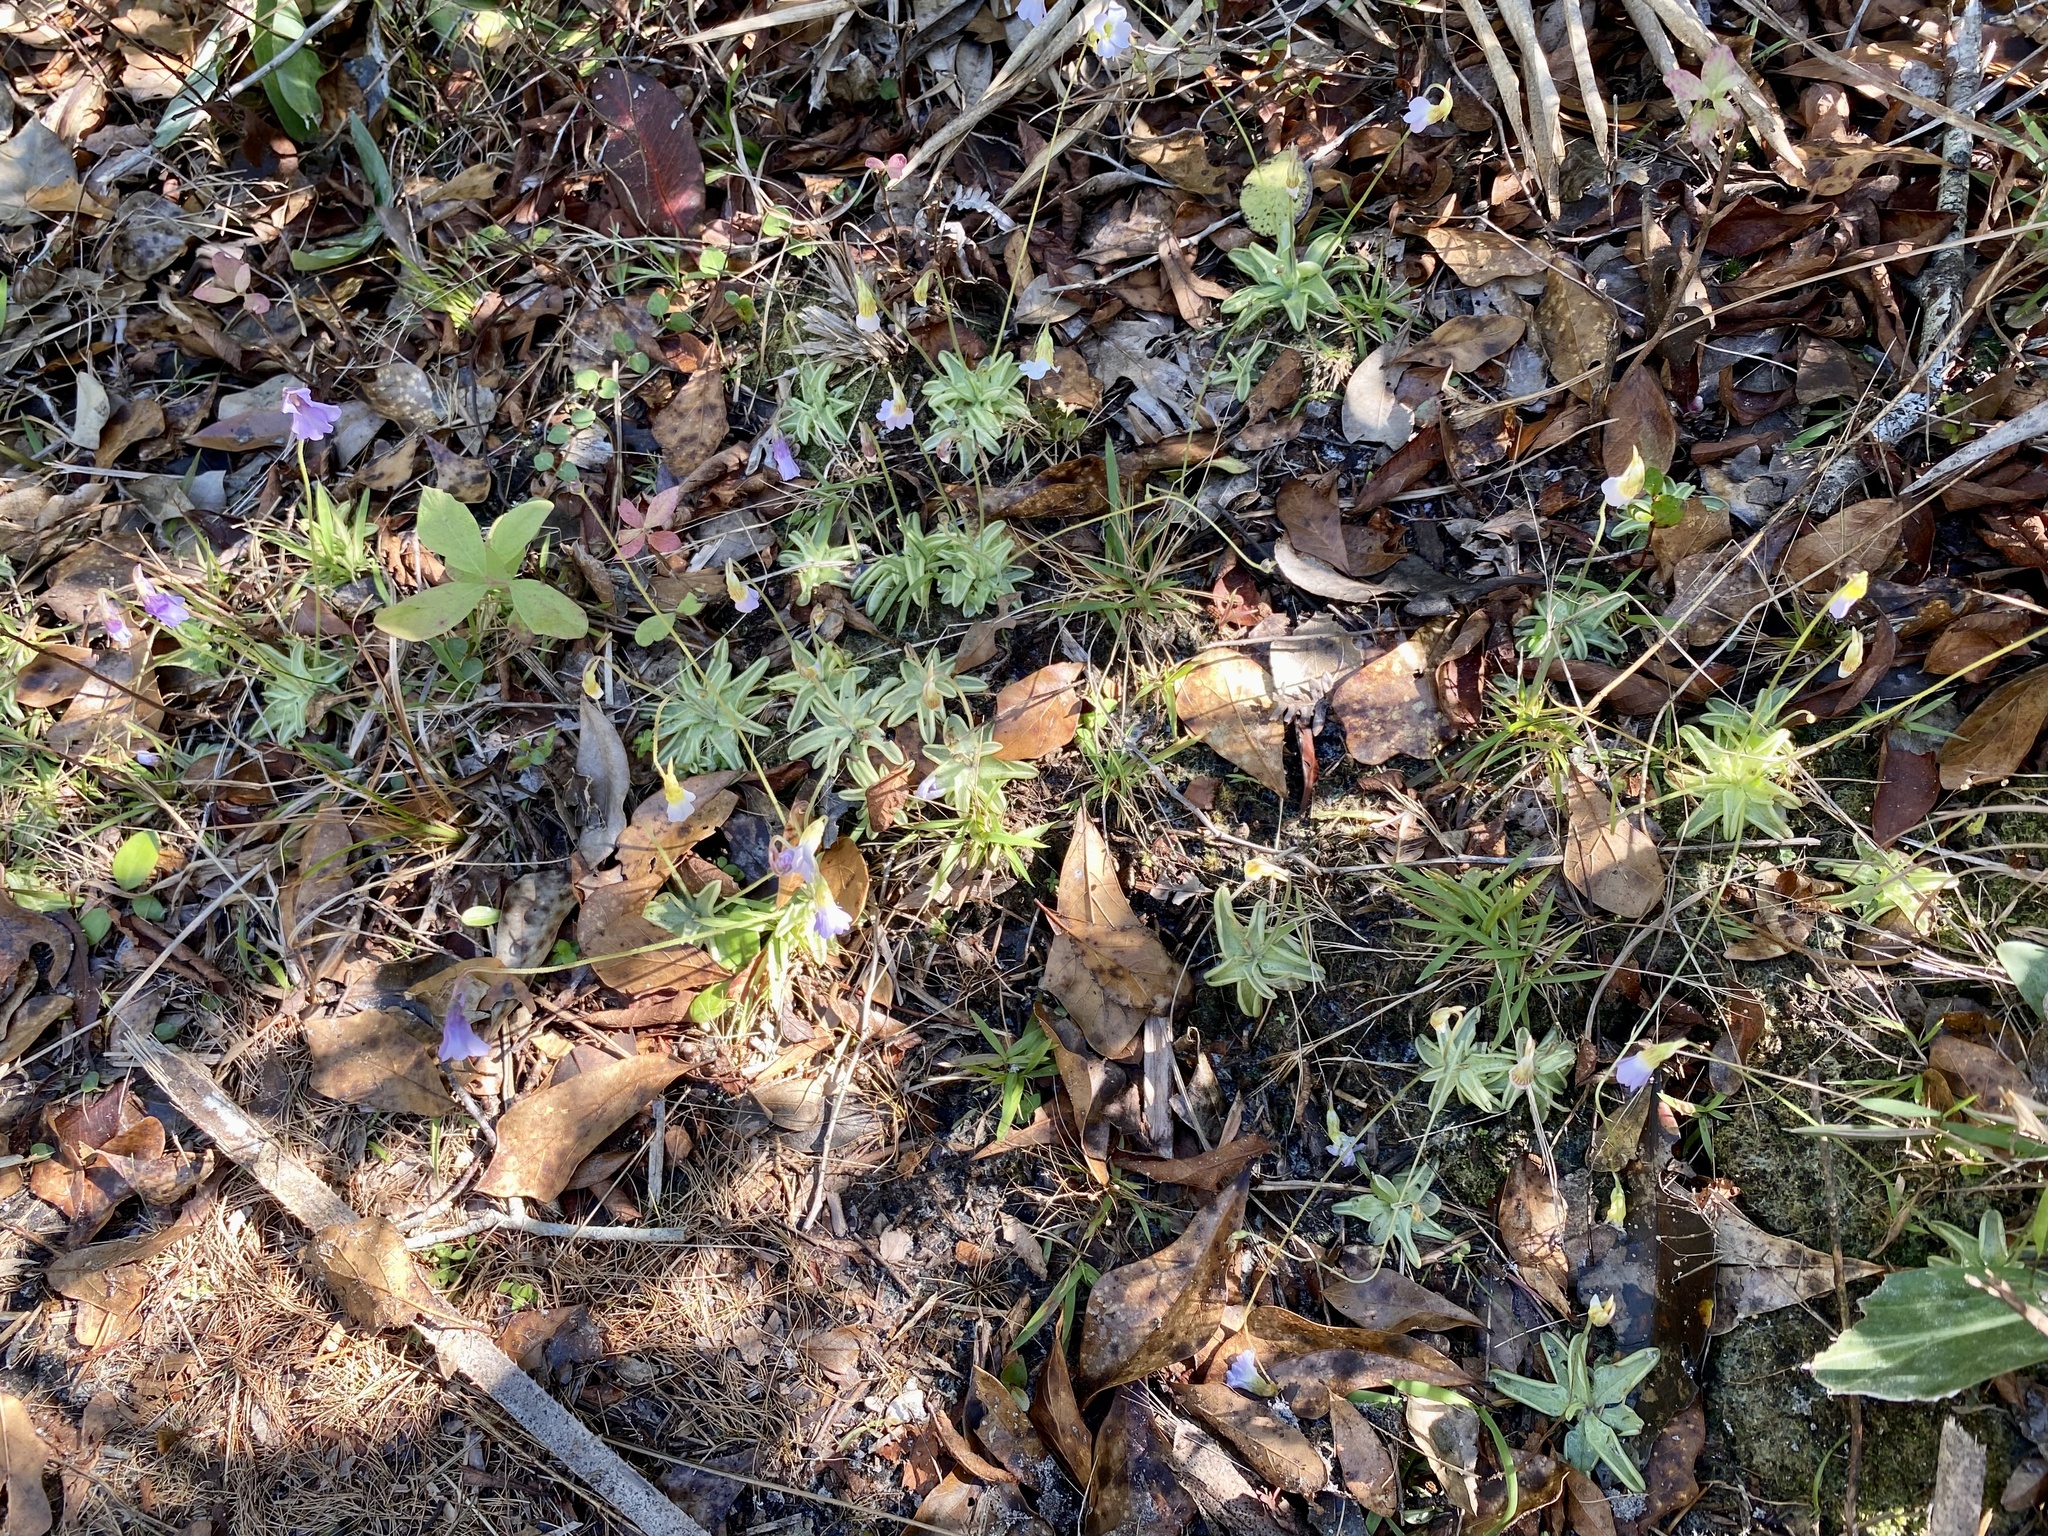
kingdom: Plantae
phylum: Tracheophyta
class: Magnoliopsida
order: Lamiales
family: Lentibulariaceae
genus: Pinguicula
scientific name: Pinguicula pumila
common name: Small butterwort
